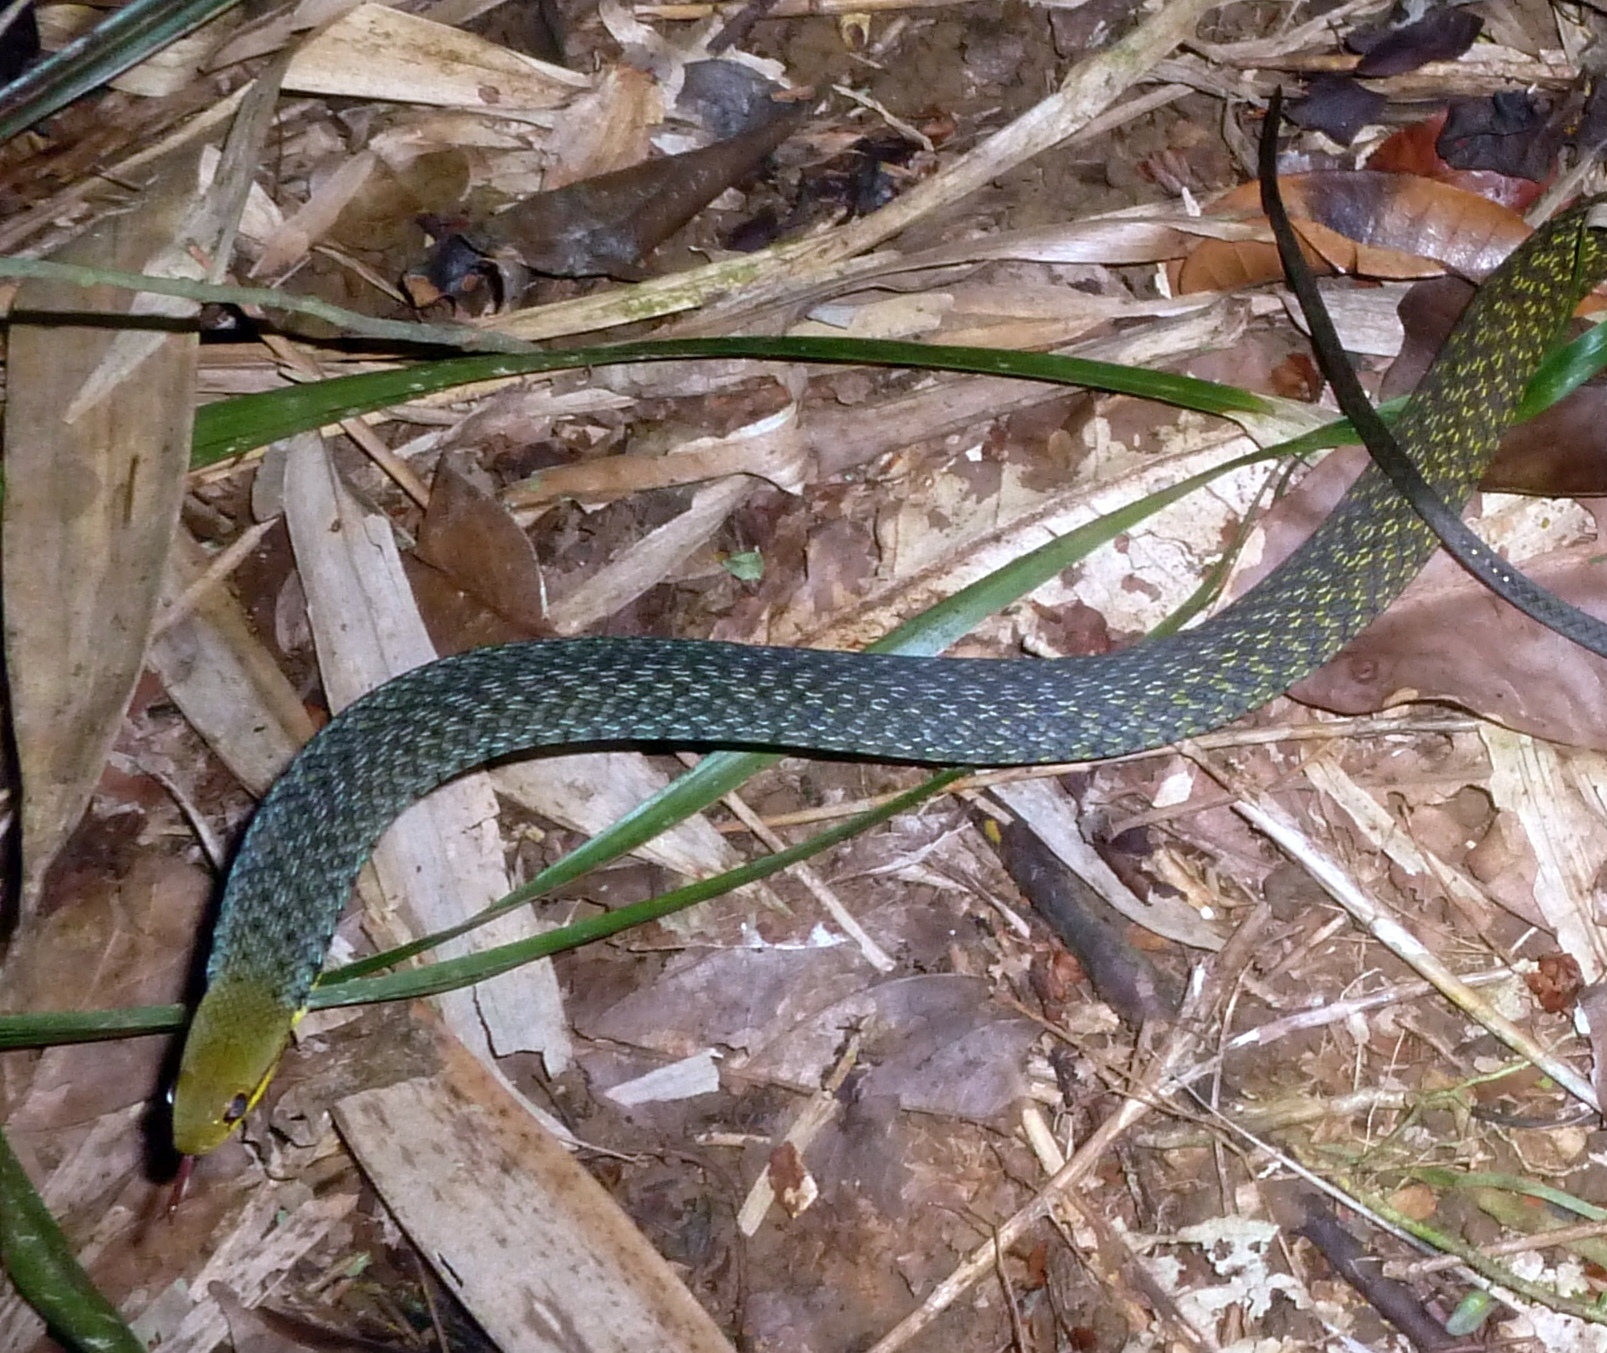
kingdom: Animalia
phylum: Chordata
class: Squamata
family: Pseudoxyrhophiidae
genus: Thamnosophis
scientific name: Thamnosophis epistibes
